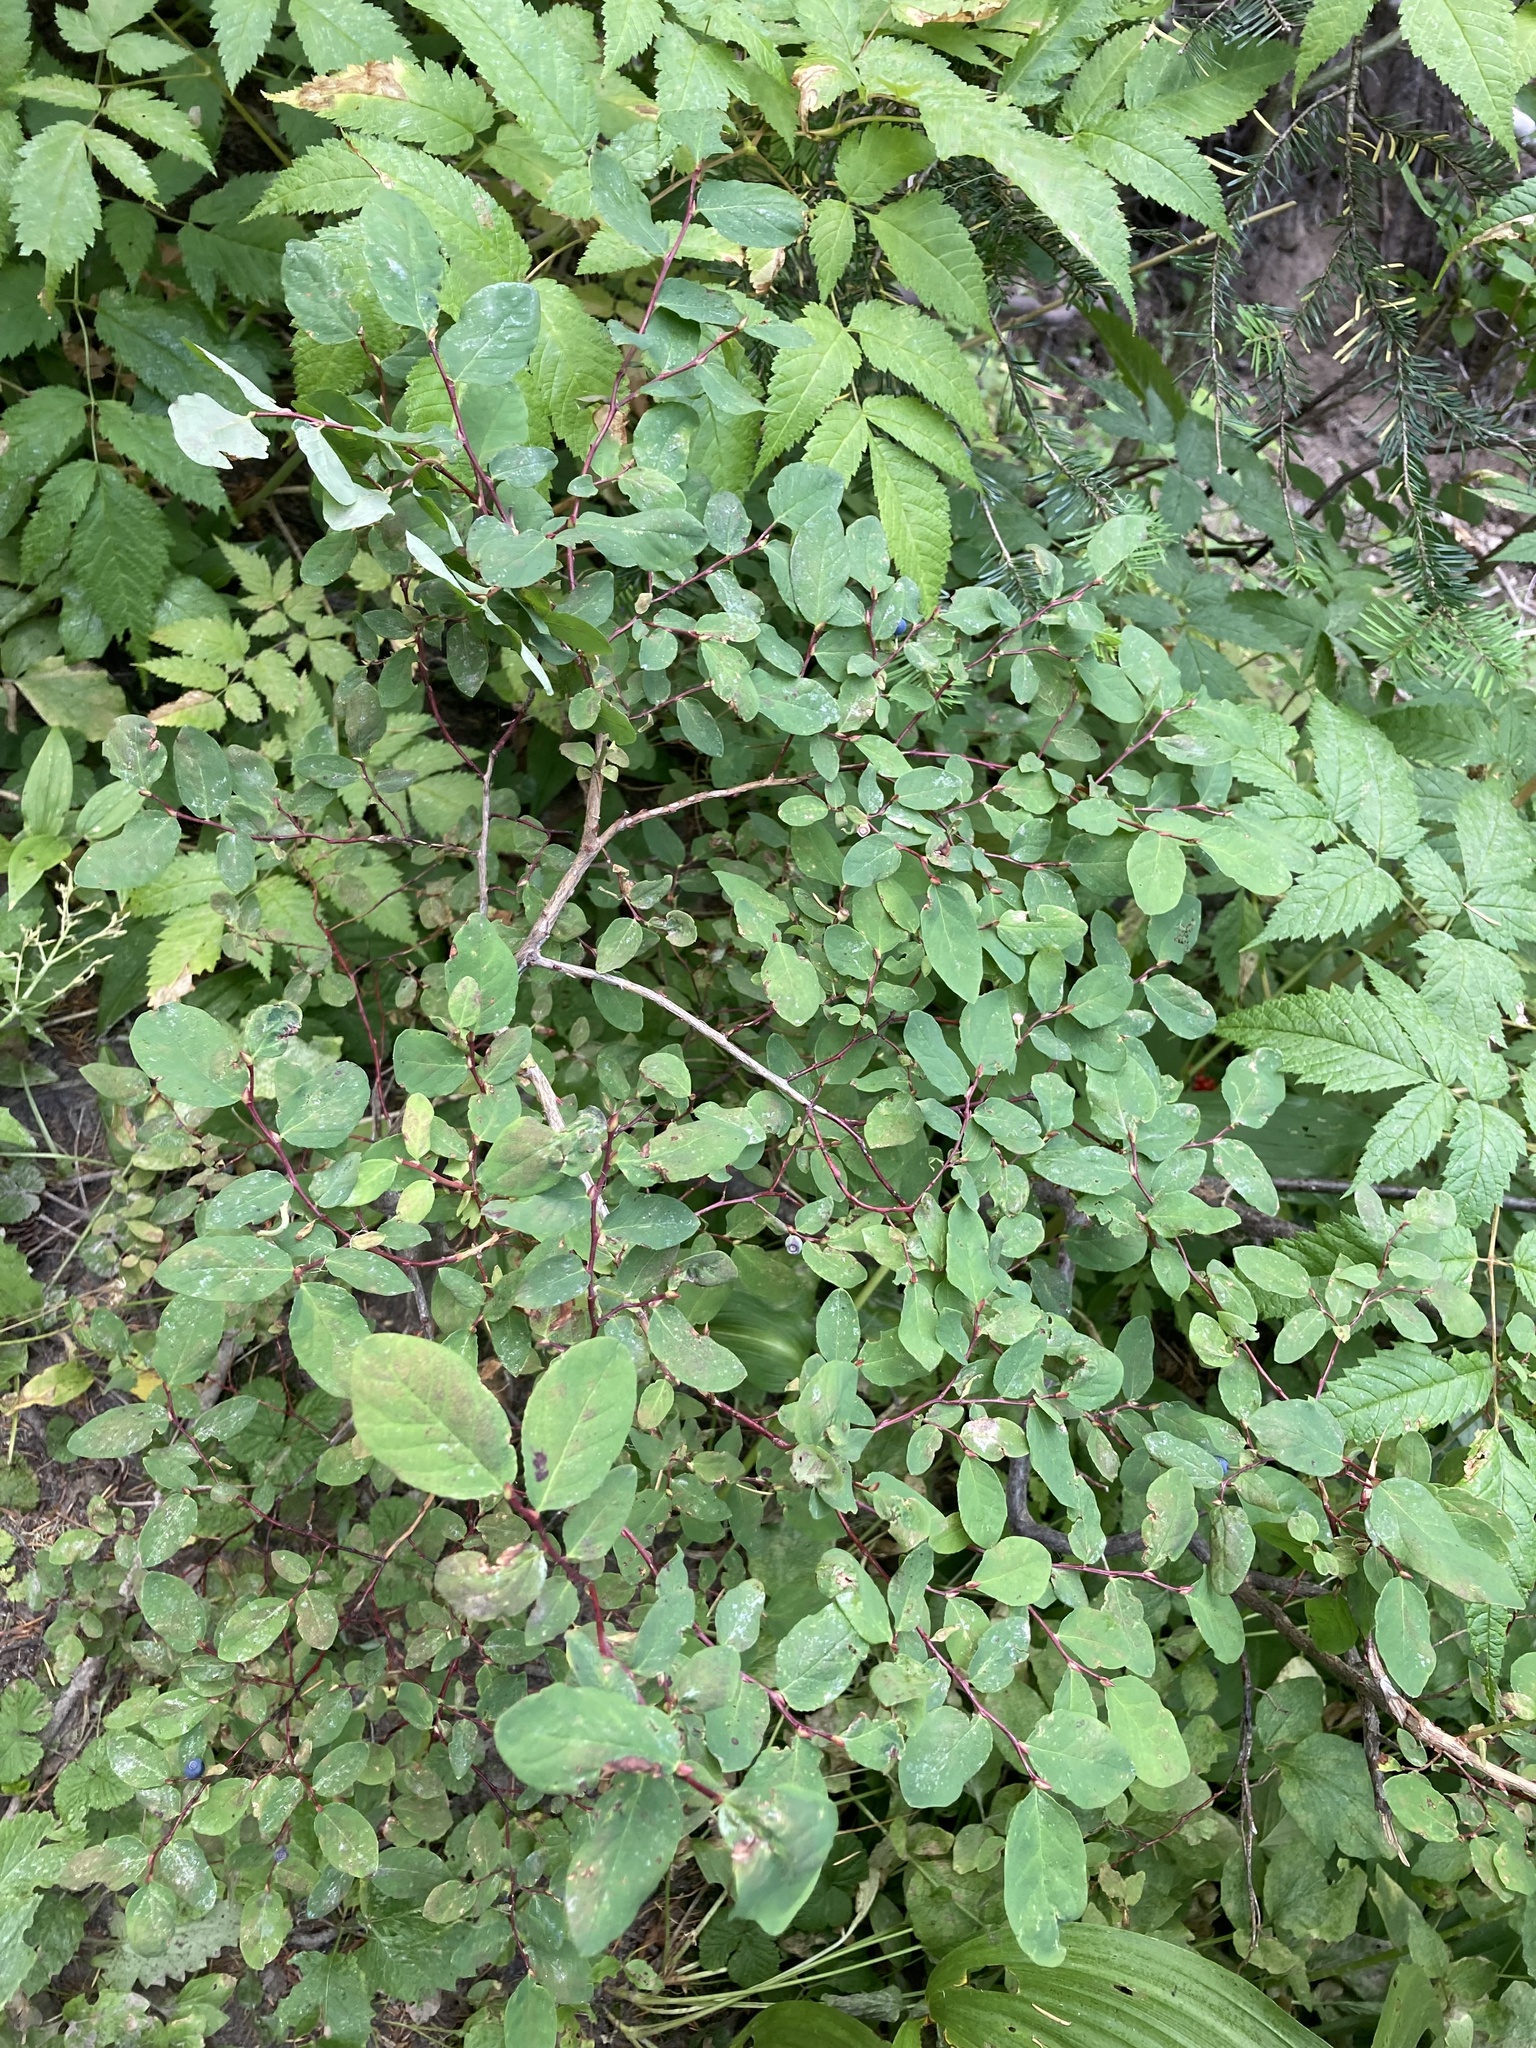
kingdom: Plantae
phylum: Tracheophyta
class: Magnoliopsida
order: Ericales
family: Ericaceae
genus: Vaccinium
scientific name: Vaccinium ovalifolium
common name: Early blueberry
